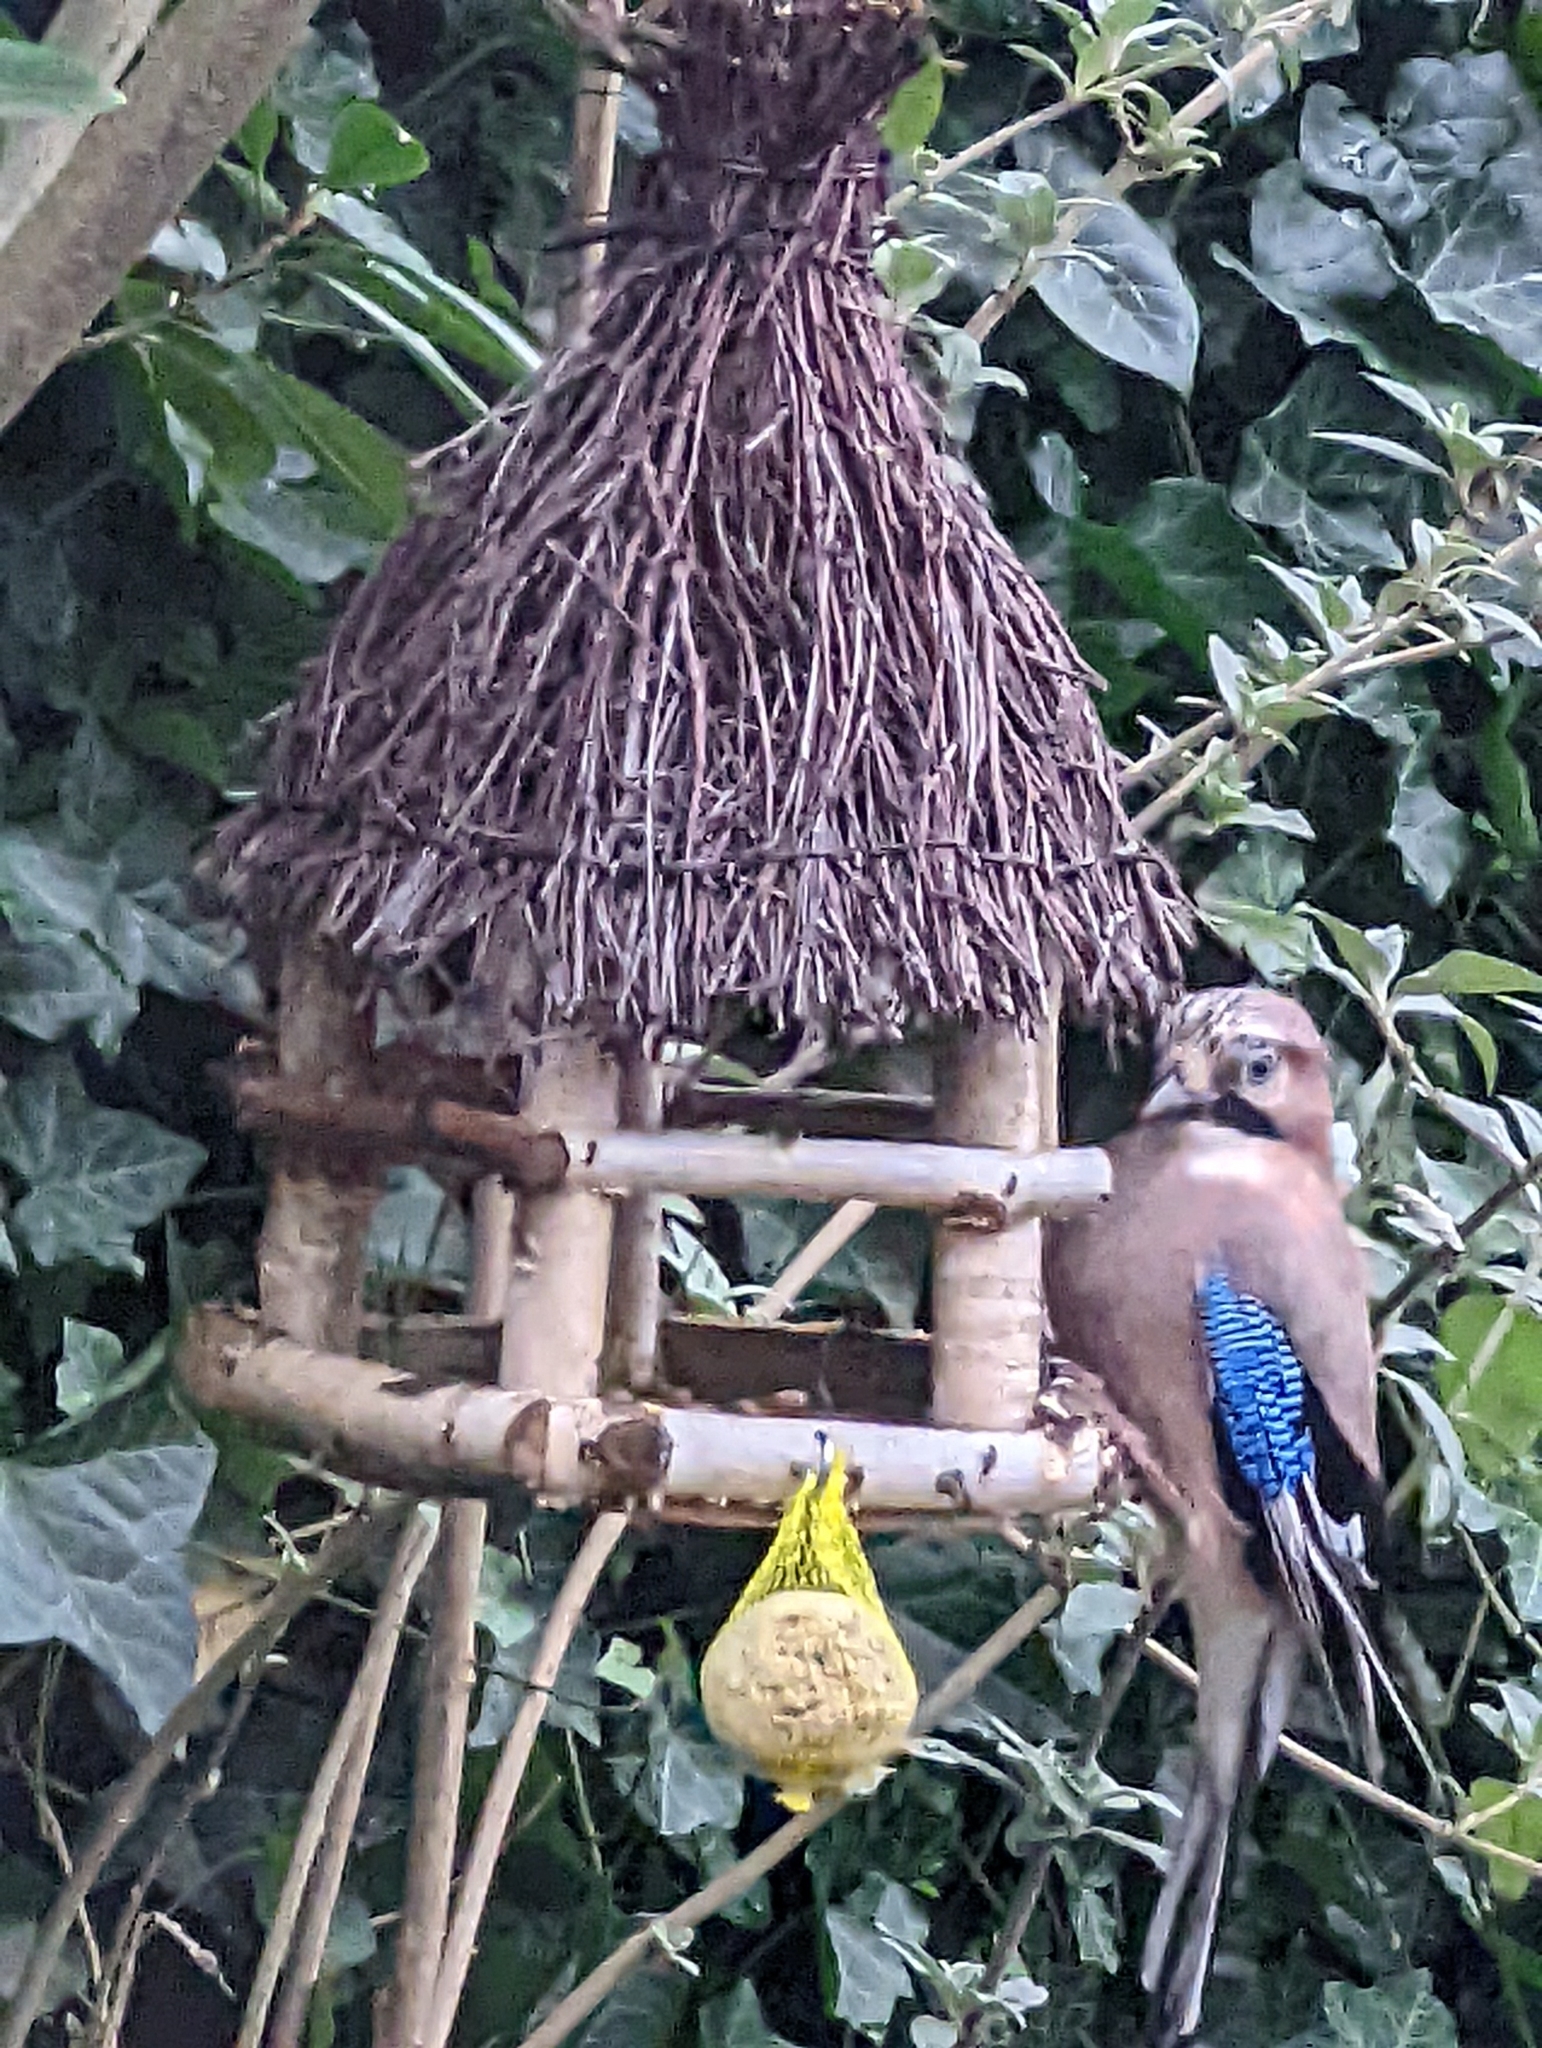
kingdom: Animalia
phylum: Chordata
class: Aves
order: Passeriformes
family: Corvidae
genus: Garrulus
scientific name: Garrulus glandarius
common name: Eurasian jay
